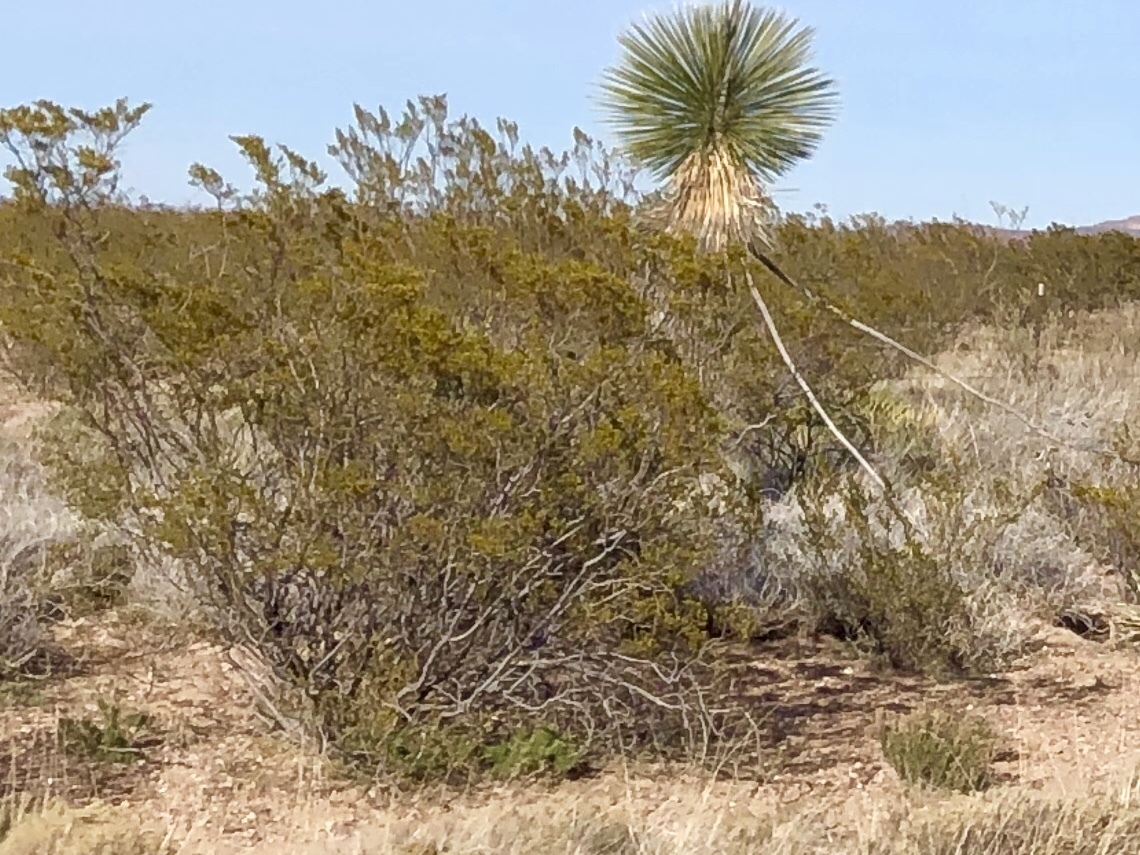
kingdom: Plantae
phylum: Tracheophyta
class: Magnoliopsida
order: Zygophyllales
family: Zygophyllaceae
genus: Larrea
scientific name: Larrea tridentata
